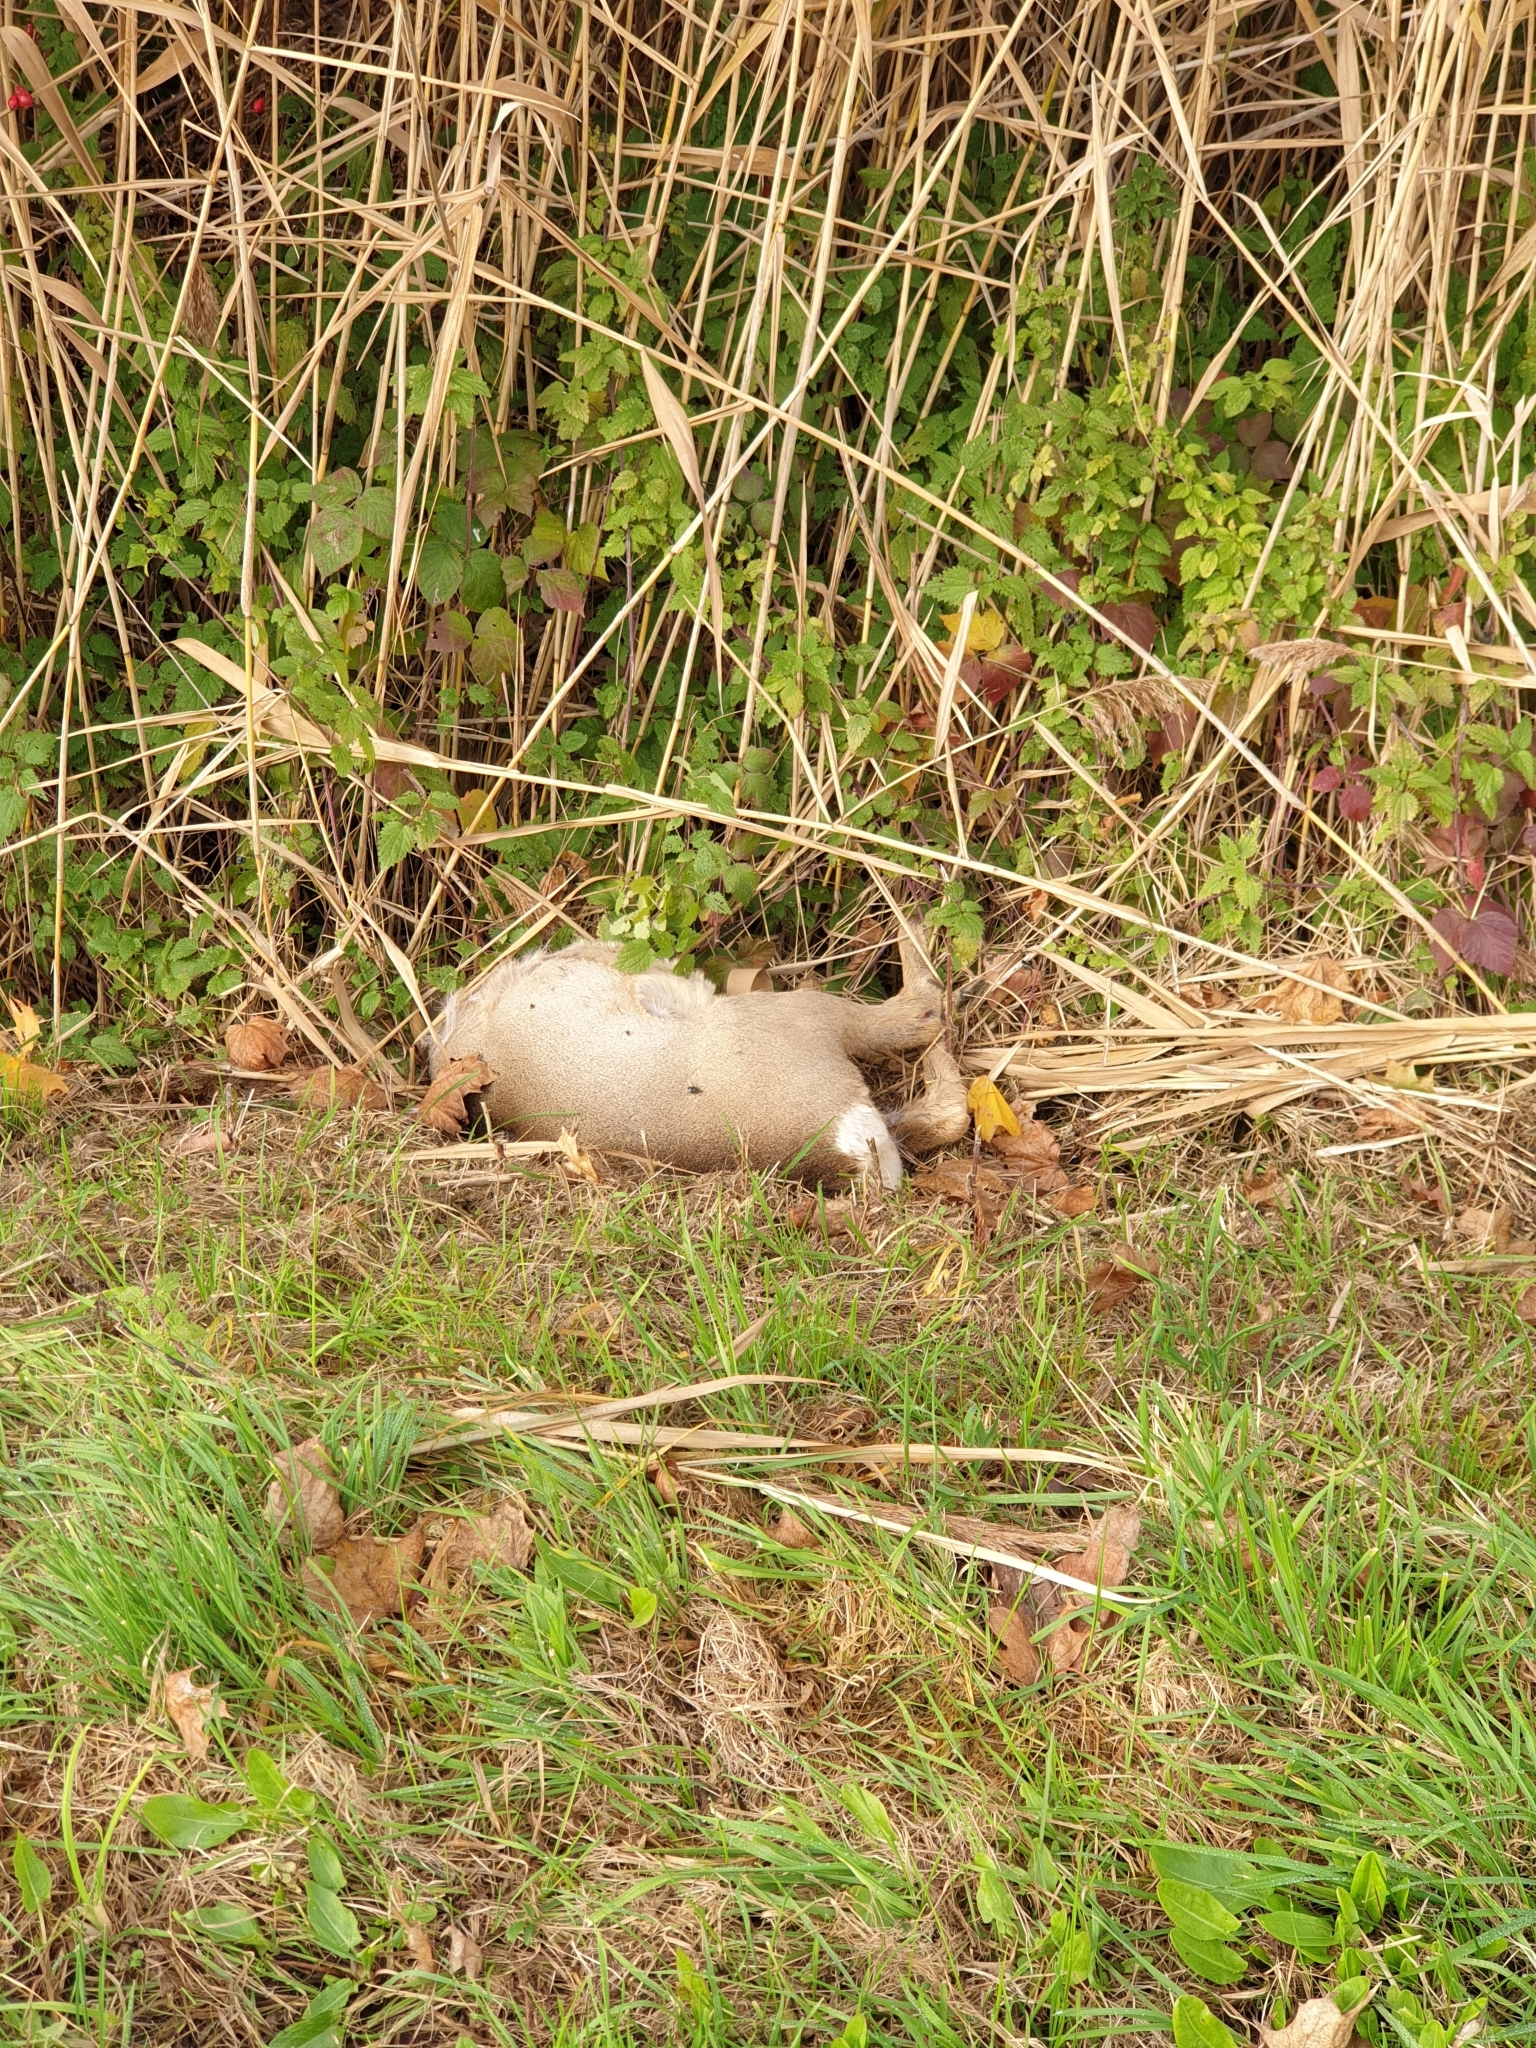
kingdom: Animalia
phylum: Chordata
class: Mammalia
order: Artiodactyla
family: Cervidae
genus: Capreolus
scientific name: Capreolus capreolus
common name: Western roe deer
